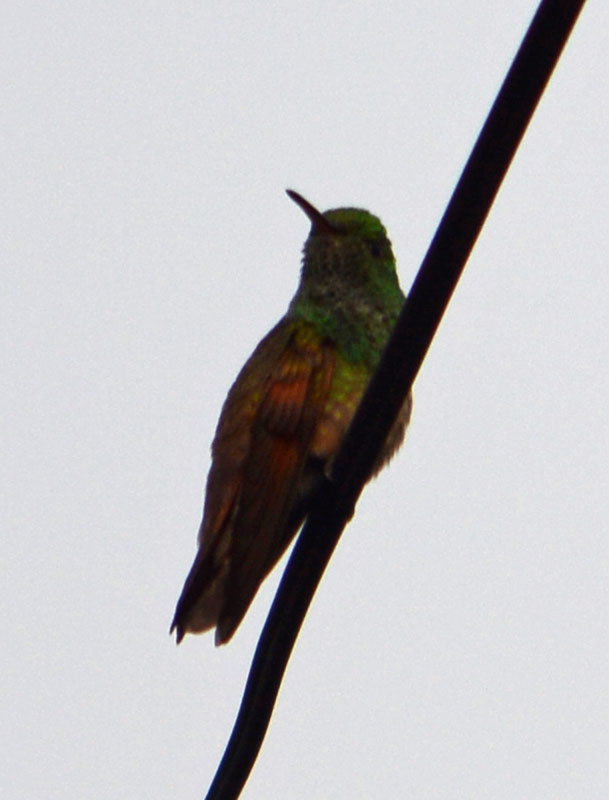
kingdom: Animalia
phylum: Chordata
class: Aves
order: Apodiformes
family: Trochilidae
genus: Saucerottia
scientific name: Saucerottia beryllina
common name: Berylline hummingbird
